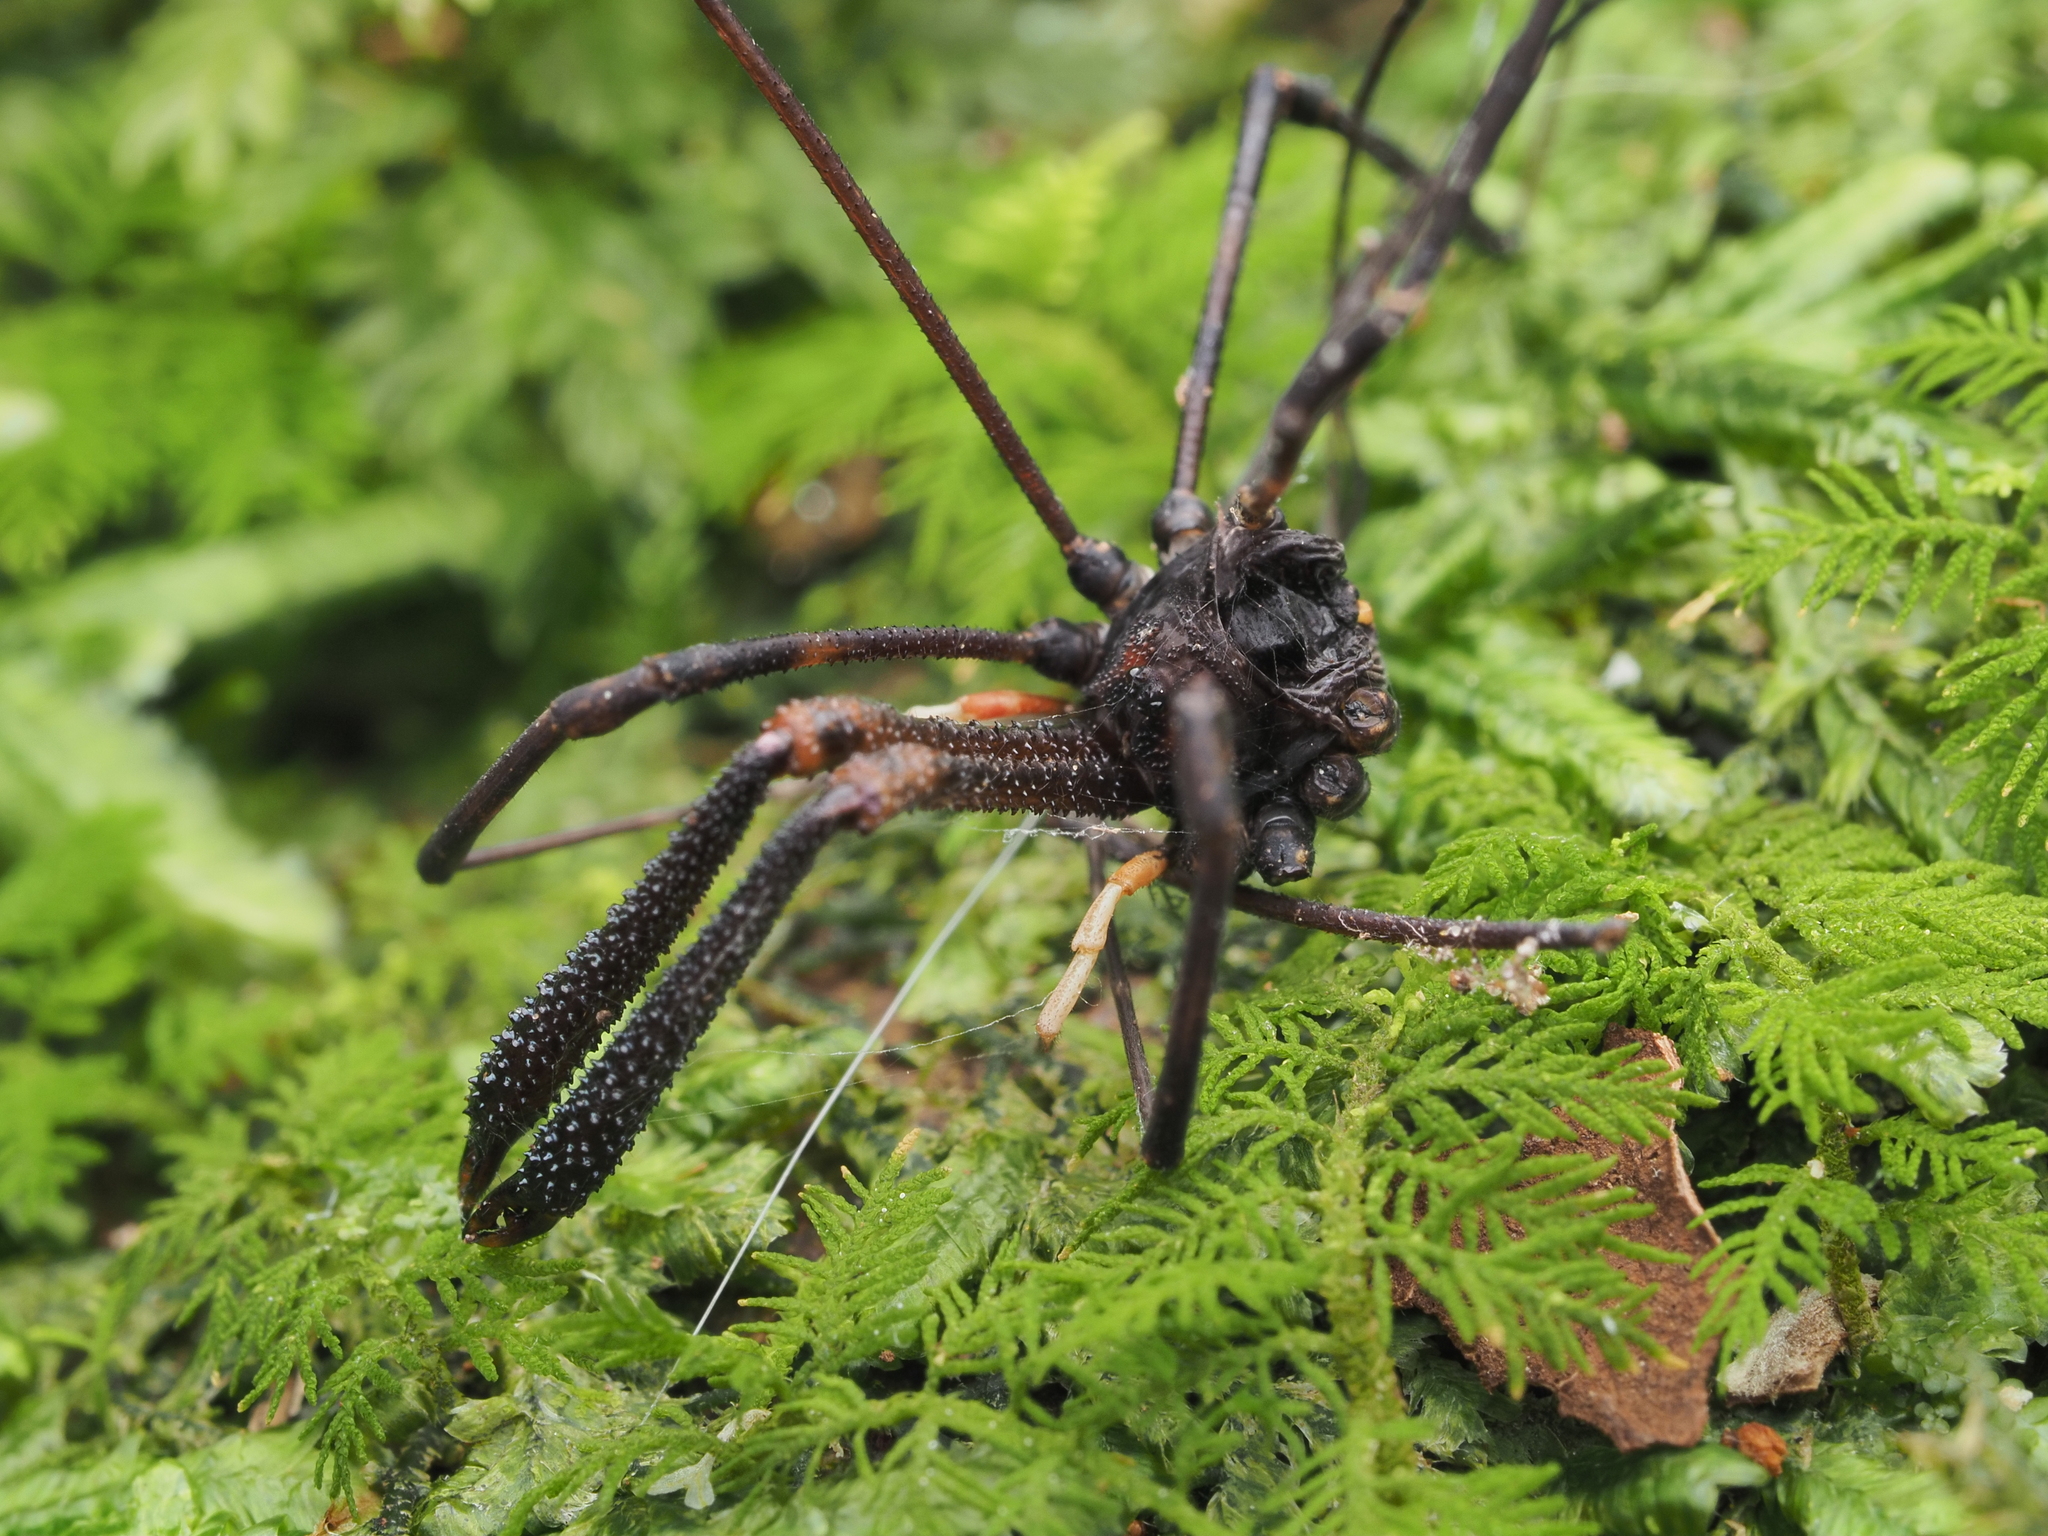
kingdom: Animalia
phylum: Arthropoda
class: Arachnida
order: Opiliones
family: Neopilionidae
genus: Forsteropsalis
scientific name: Forsteropsalis inconstans
